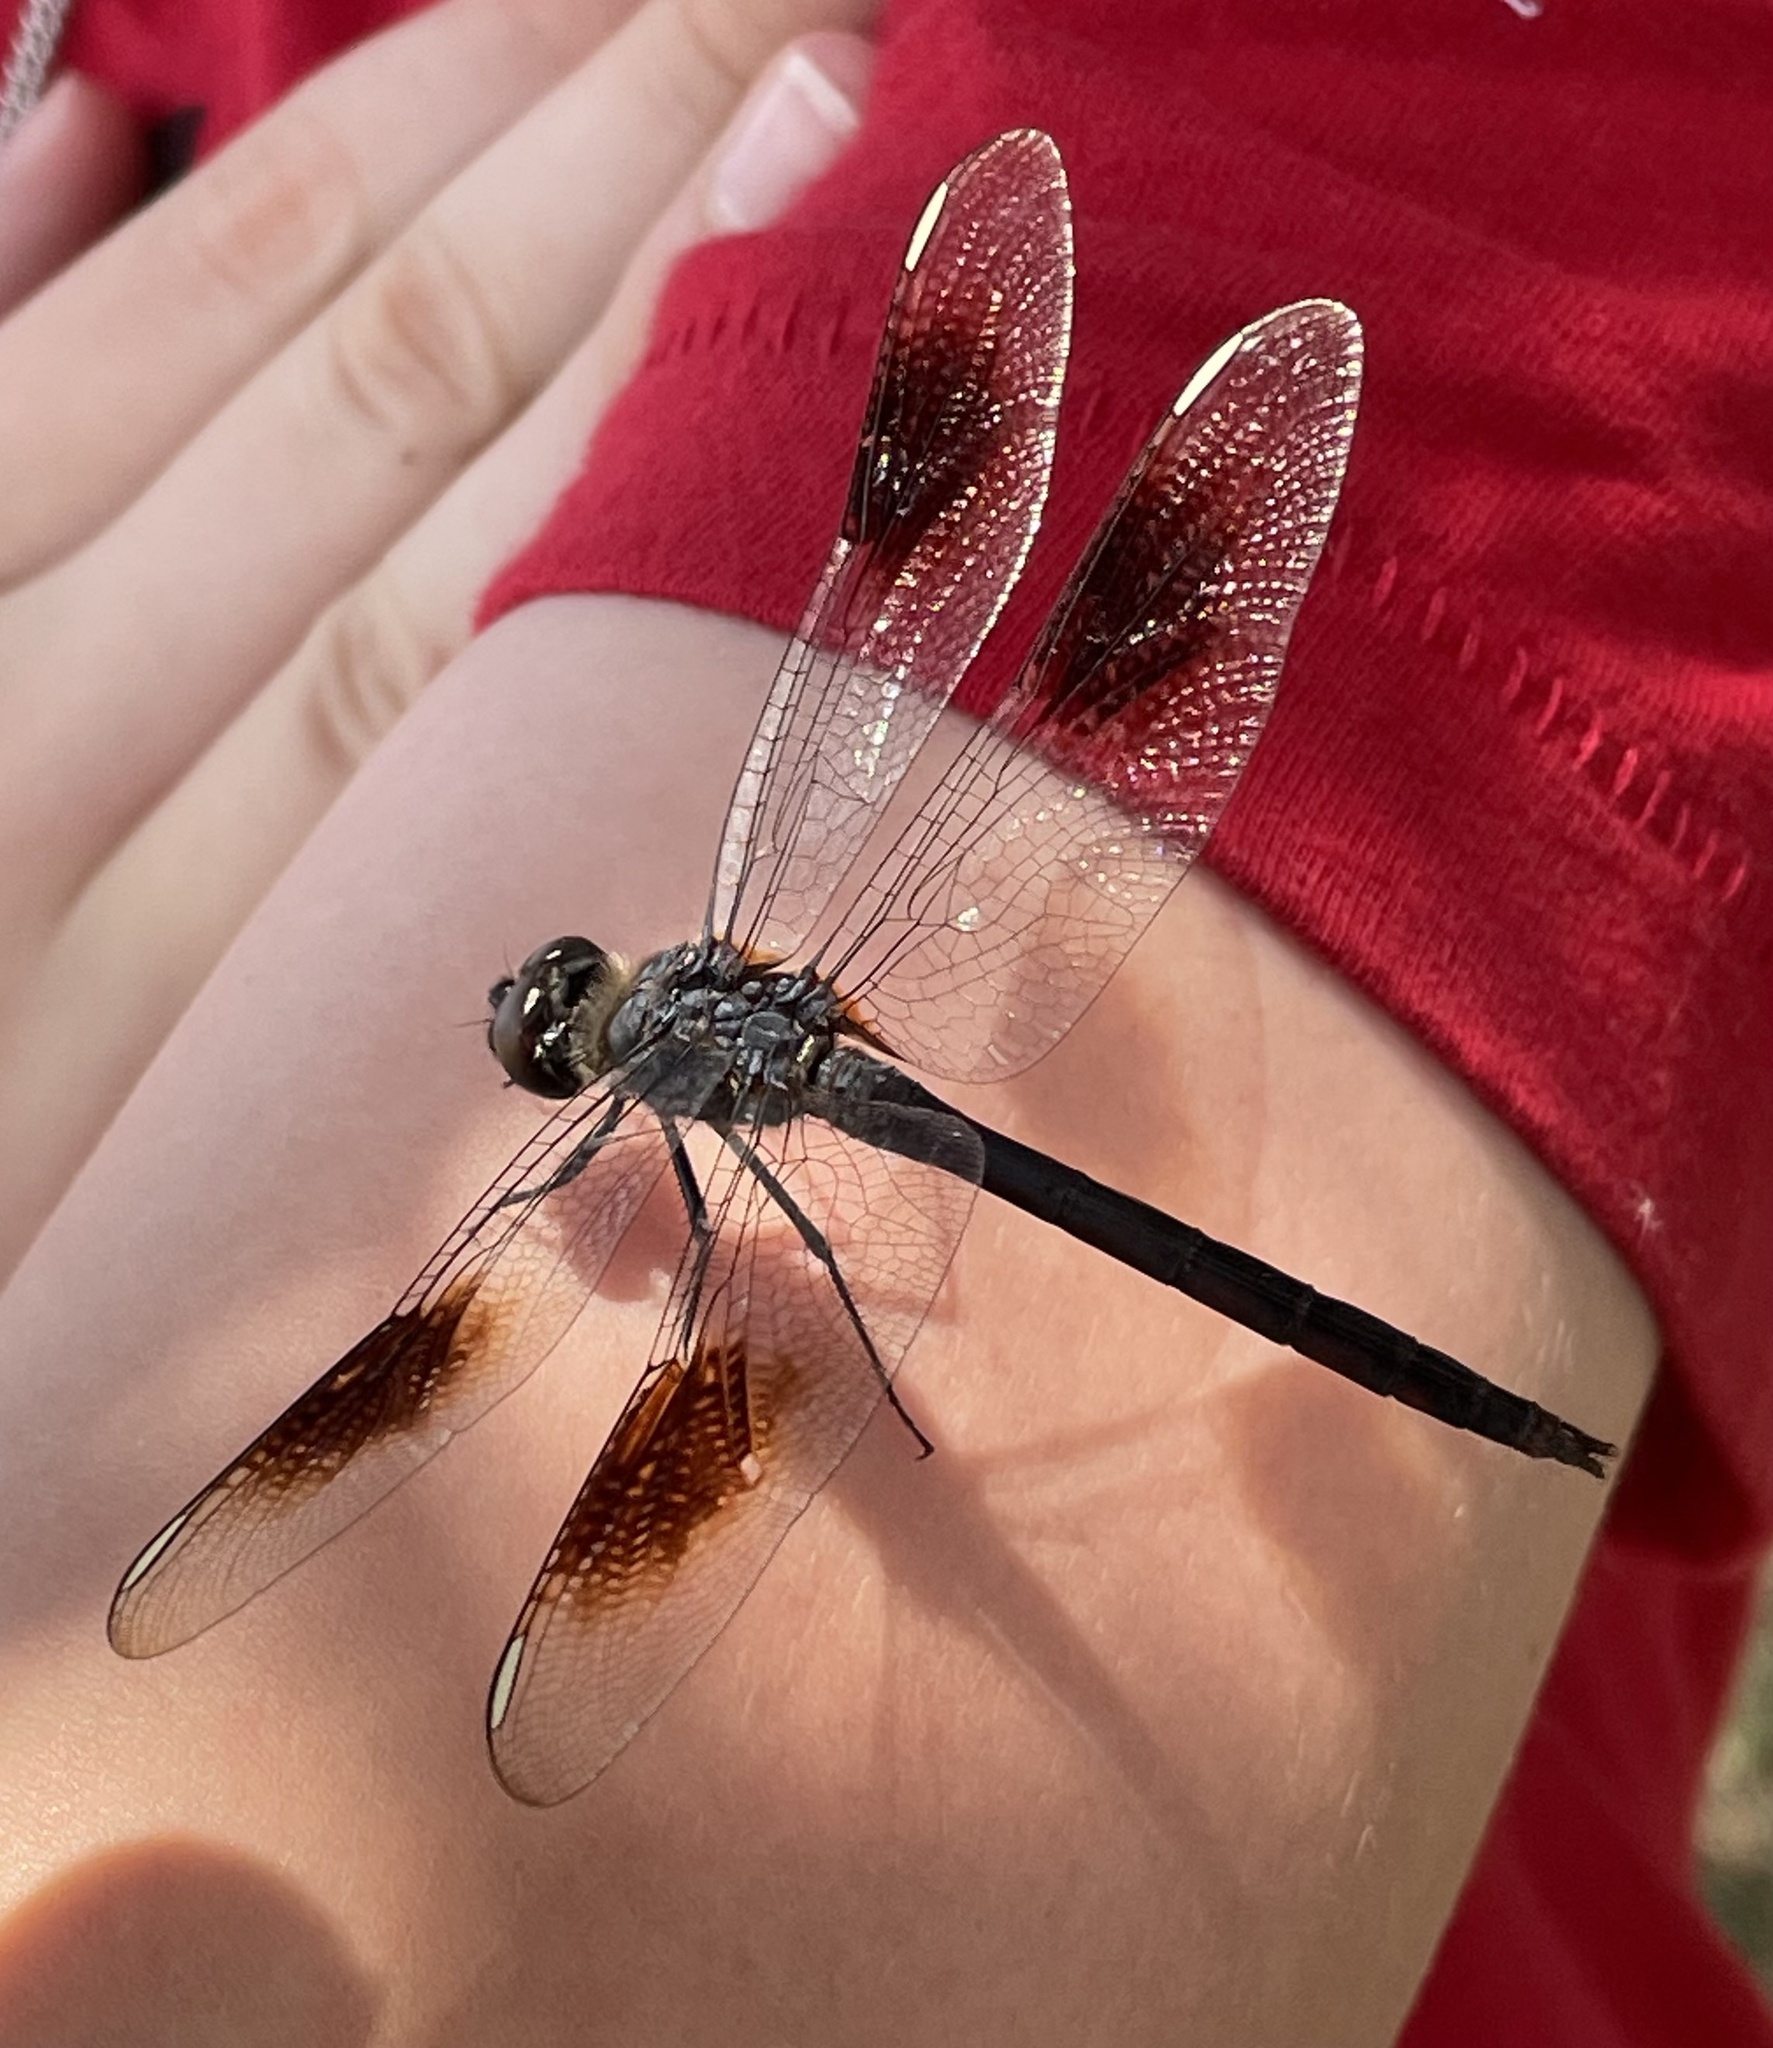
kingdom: Animalia
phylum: Arthropoda
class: Insecta
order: Odonata
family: Libellulidae
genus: Brachymesia
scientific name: Brachymesia gravida
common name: Four-spotted pennant
